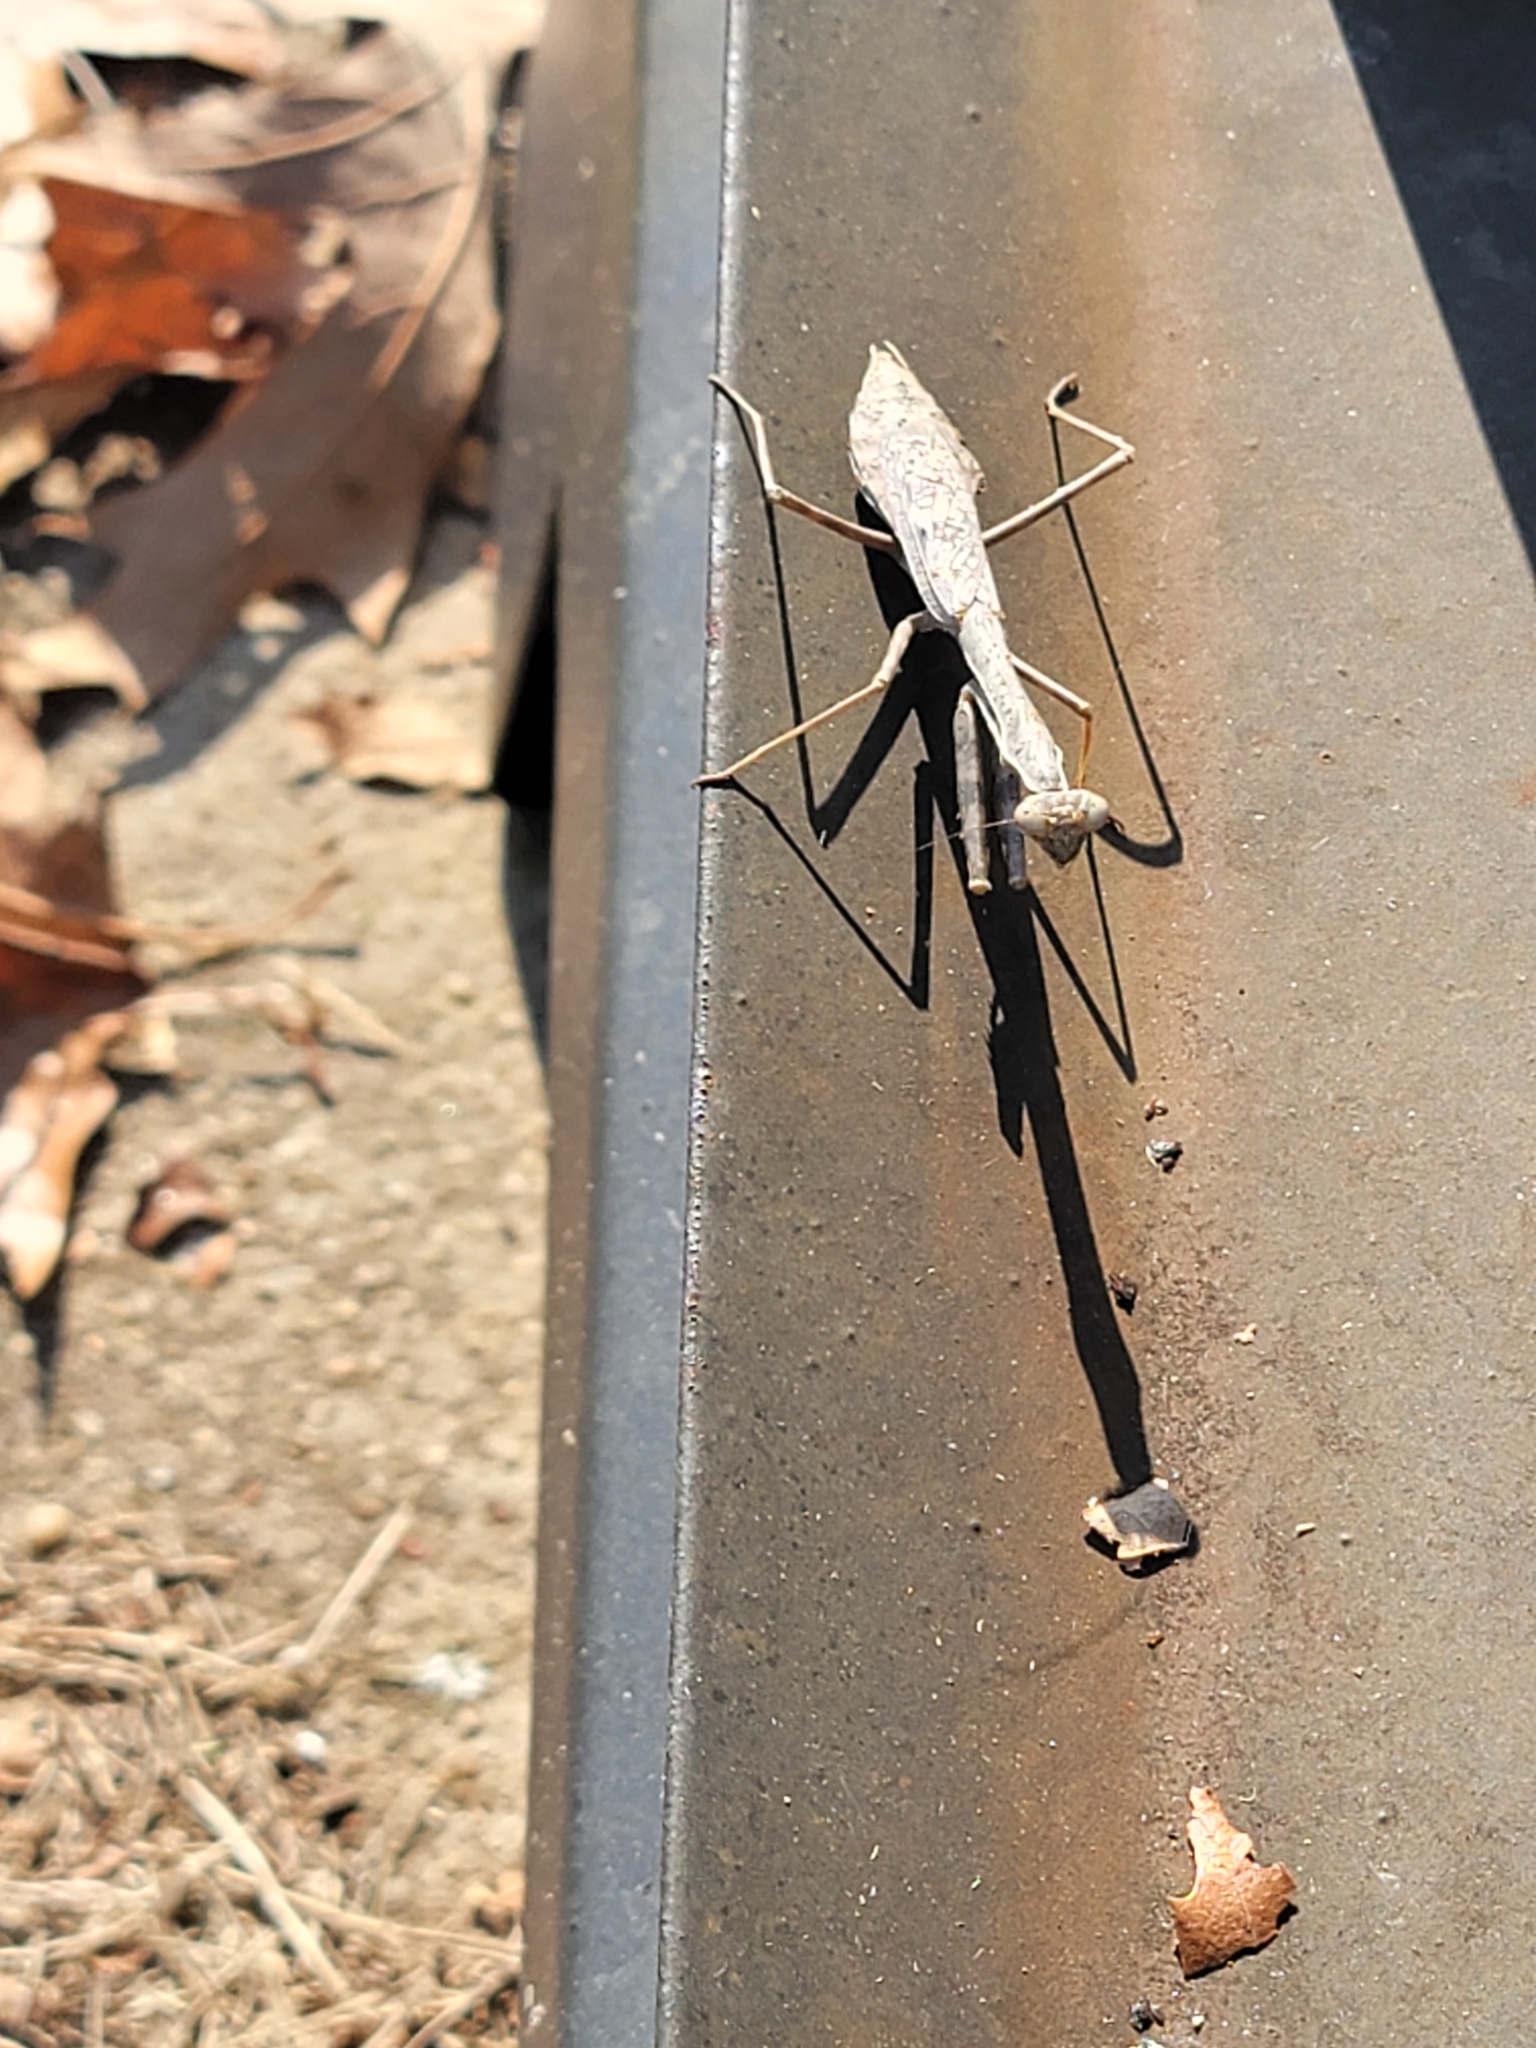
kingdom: Animalia
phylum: Arthropoda
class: Insecta
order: Mantodea
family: Mantidae
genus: Stagmomantis
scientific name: Stagmomantis carolina
